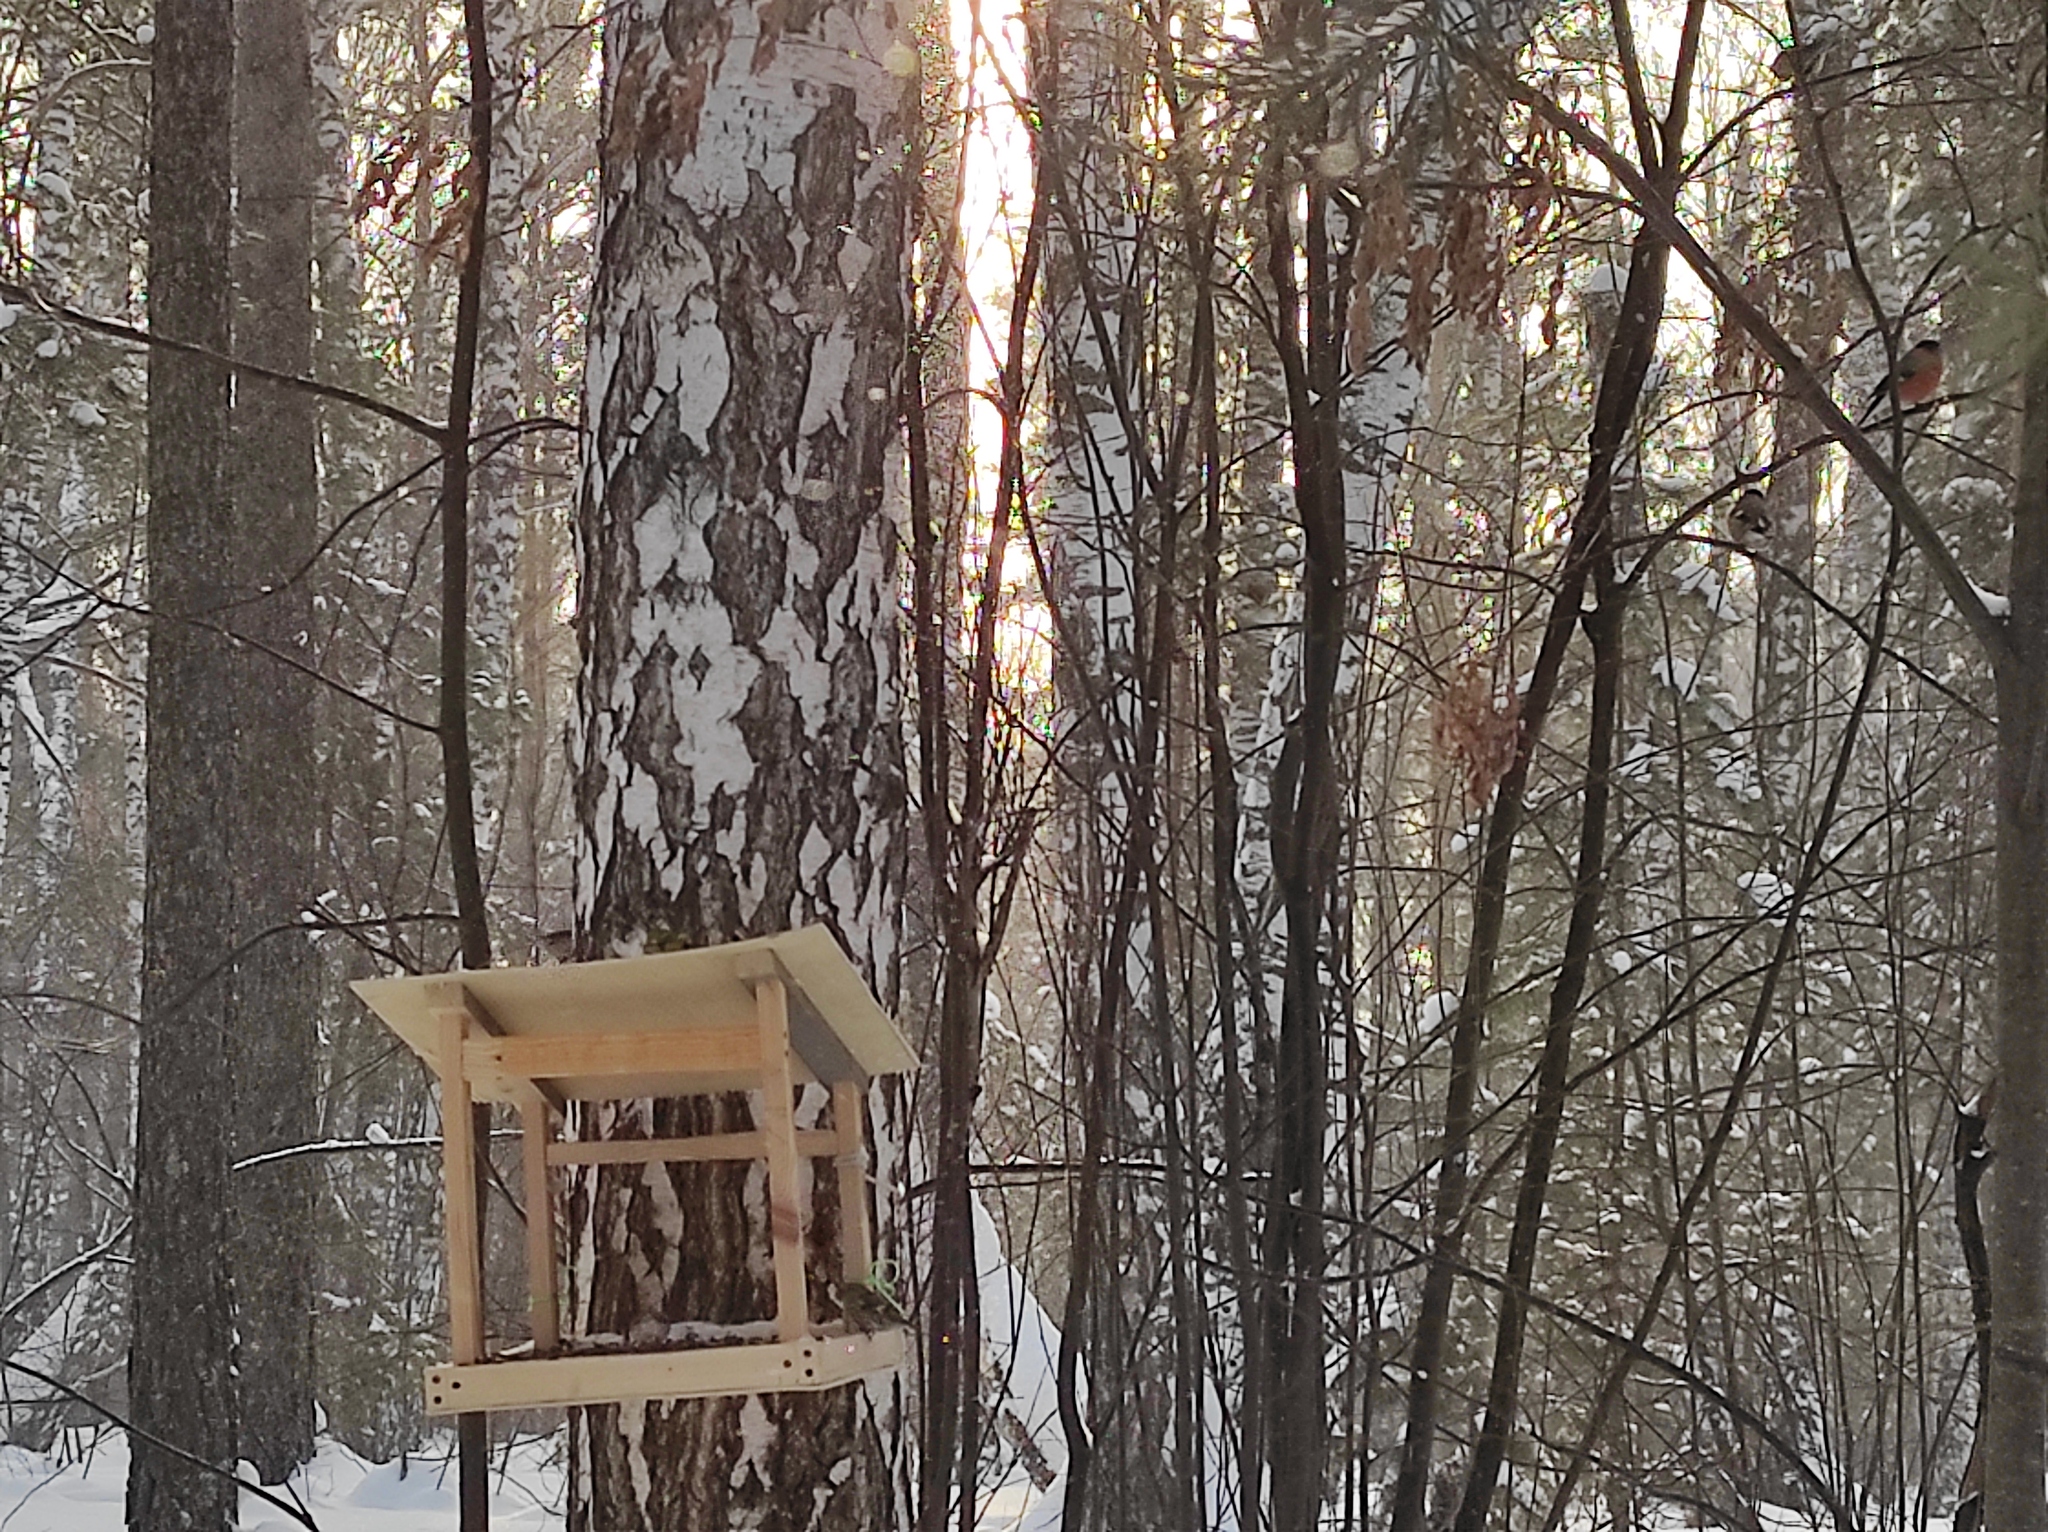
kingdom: Animalia
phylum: Chordata
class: Aves
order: Passeriformes
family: Fringillidae
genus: Pyrrhula
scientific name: Pyrrhula pyrrhula
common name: Eurasian bullfinch
